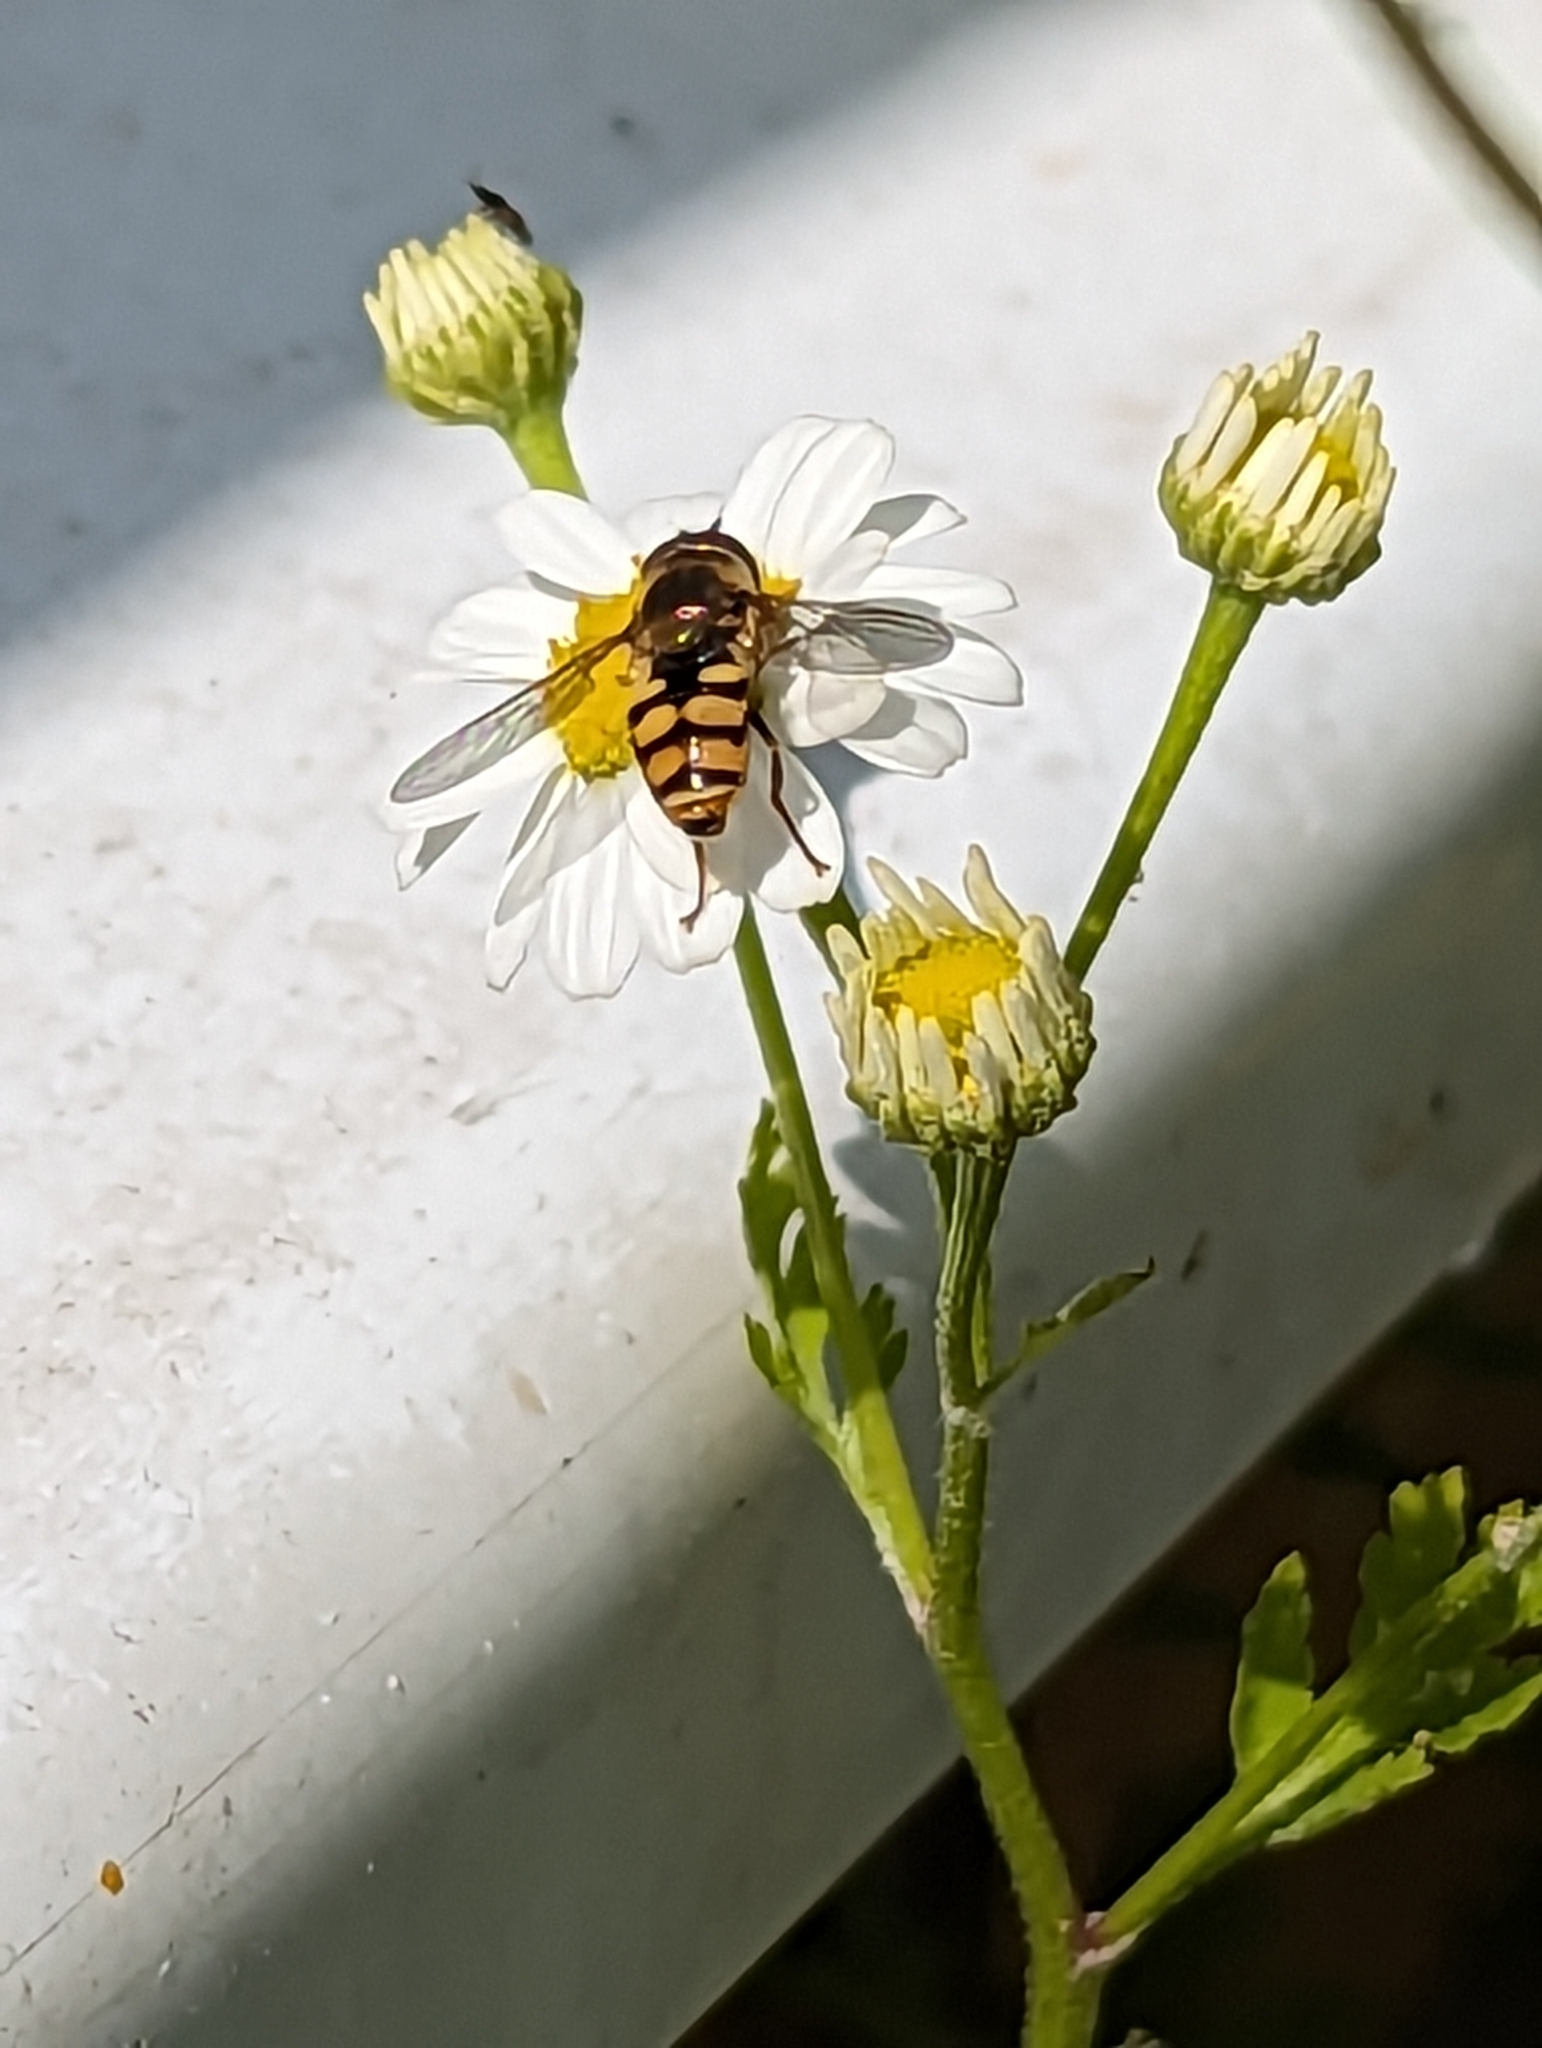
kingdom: Animalia
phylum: Arthropoda
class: Insecta
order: Diptera
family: Syrphidae
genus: Eupeodes
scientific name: Eupeodes corollae
